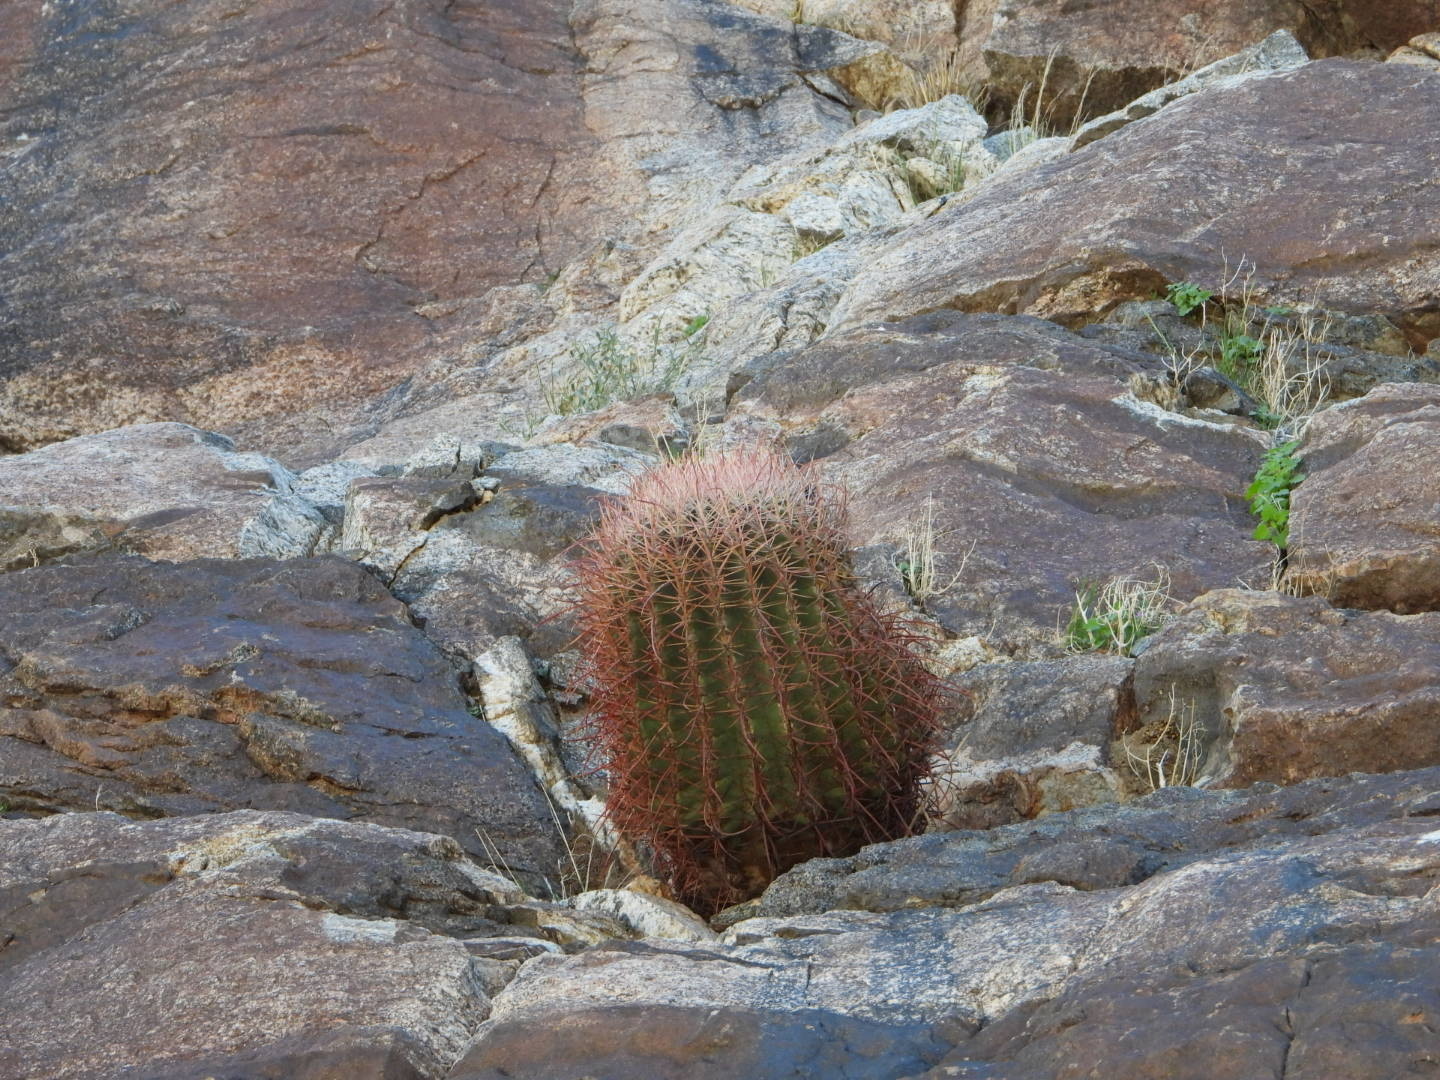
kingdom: Plantae
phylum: Tracheophyta
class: Magnoliopsida
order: Caryophyllales
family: Cactaceae
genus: Ferocactus
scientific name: Ferocactus cylindraceus
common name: California barrel cactus
